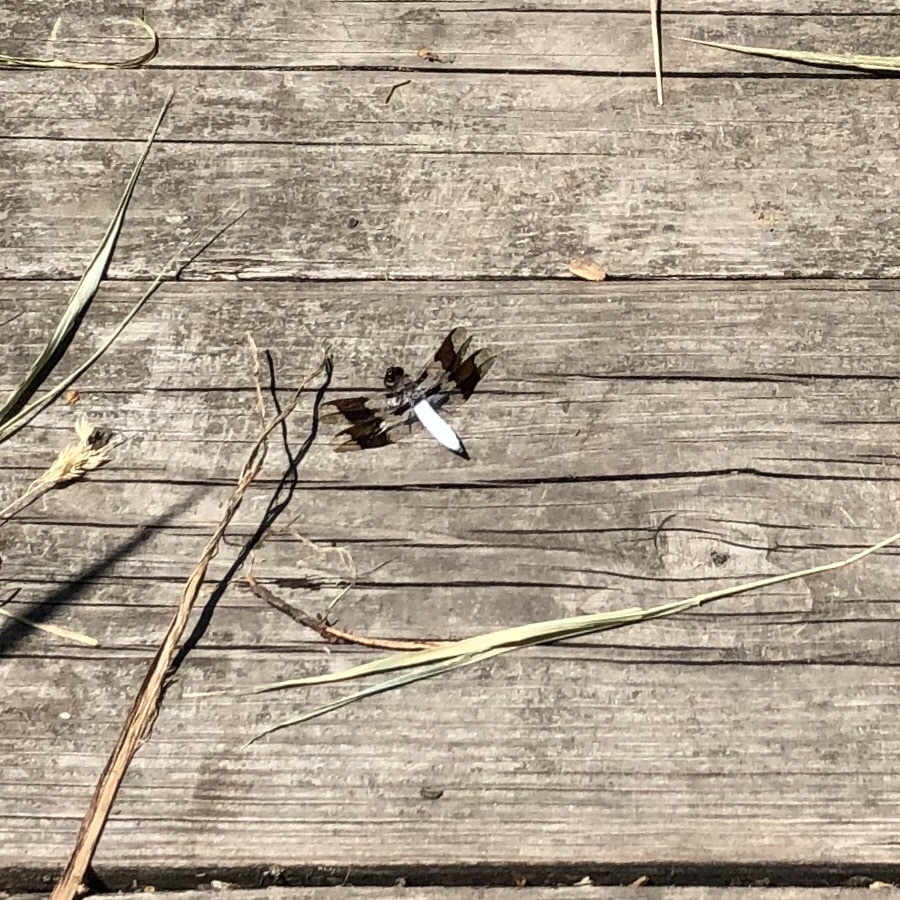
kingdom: Animalia
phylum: Arthropoda
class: Insecta
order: Odonata
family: Libellulidae
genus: Plathemis
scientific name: Plathemis lydia
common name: Common whitetail
